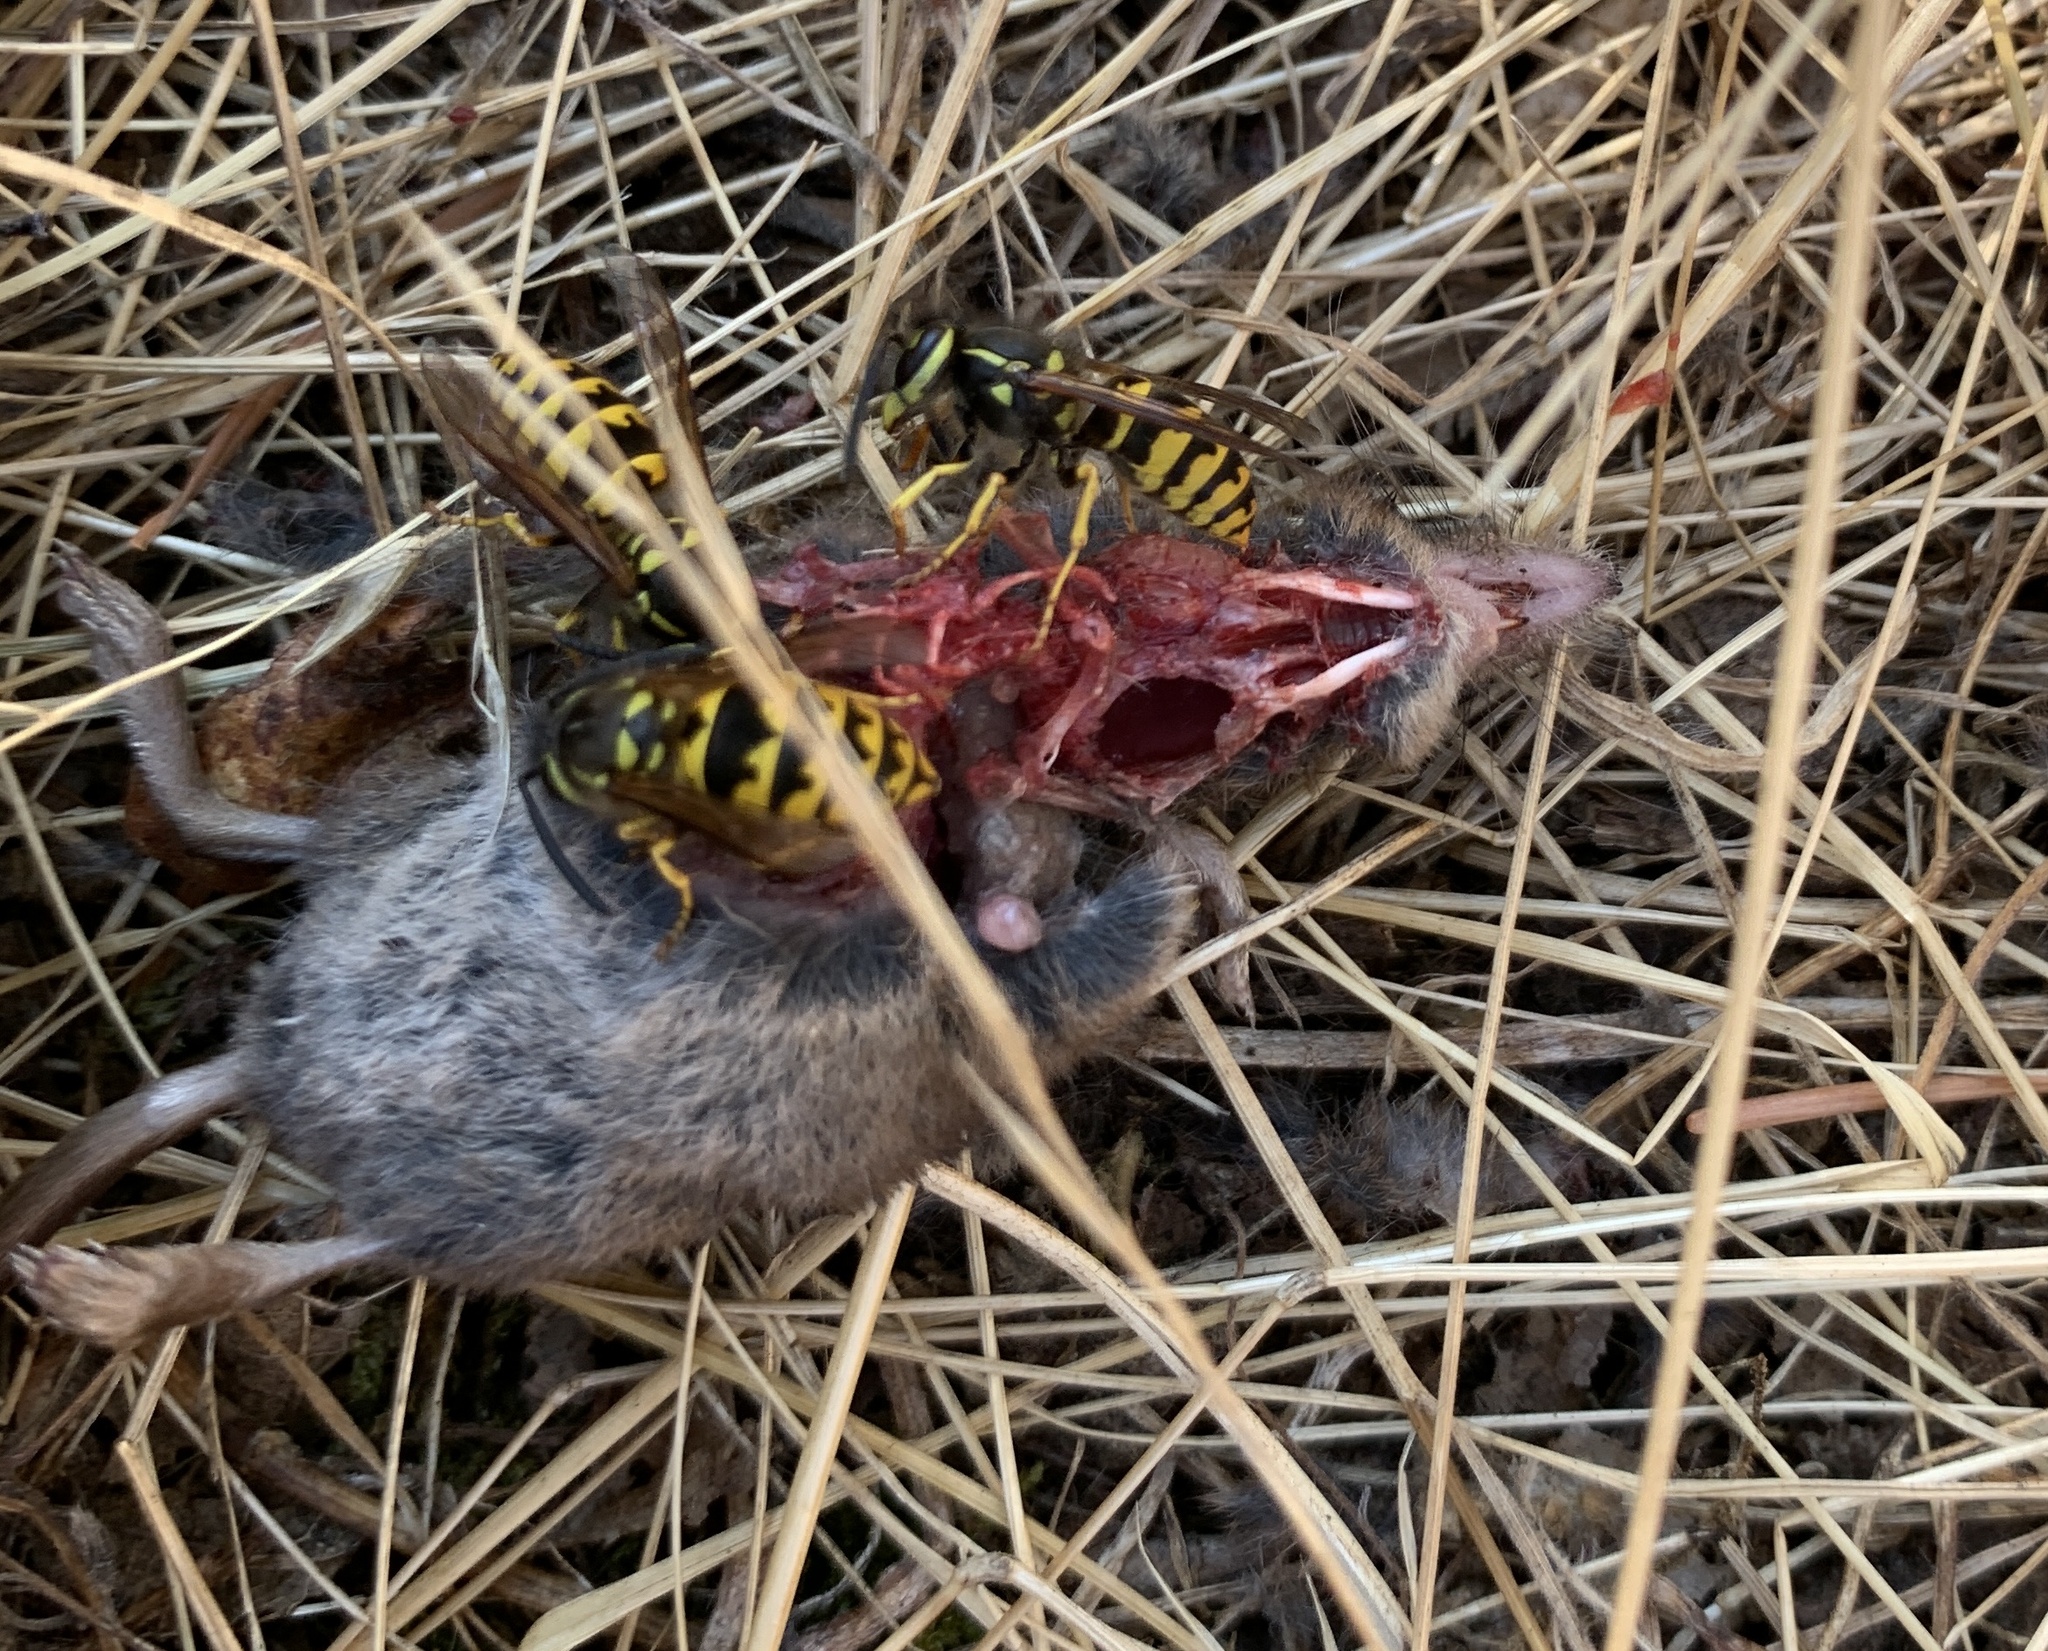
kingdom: Animalia
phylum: Arthropoda
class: Insecta
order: Hymenoptera
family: Vespidae
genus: Vespula
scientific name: Vespula pensylvanica
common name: Western yellowjacket
